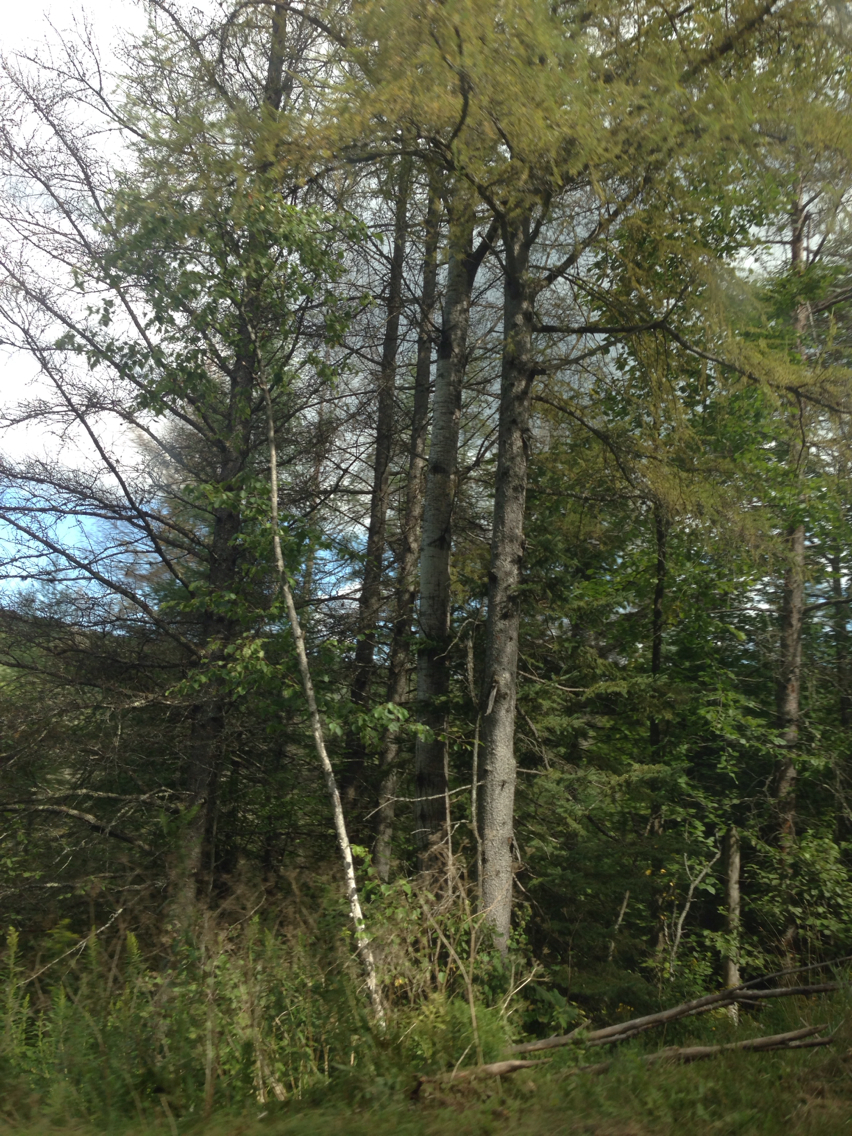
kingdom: Plantae
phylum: Tracheophyta
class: Pinopsida
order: Pinales
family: Pinaceae
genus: Larix
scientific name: Larix laricina
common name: American larch
